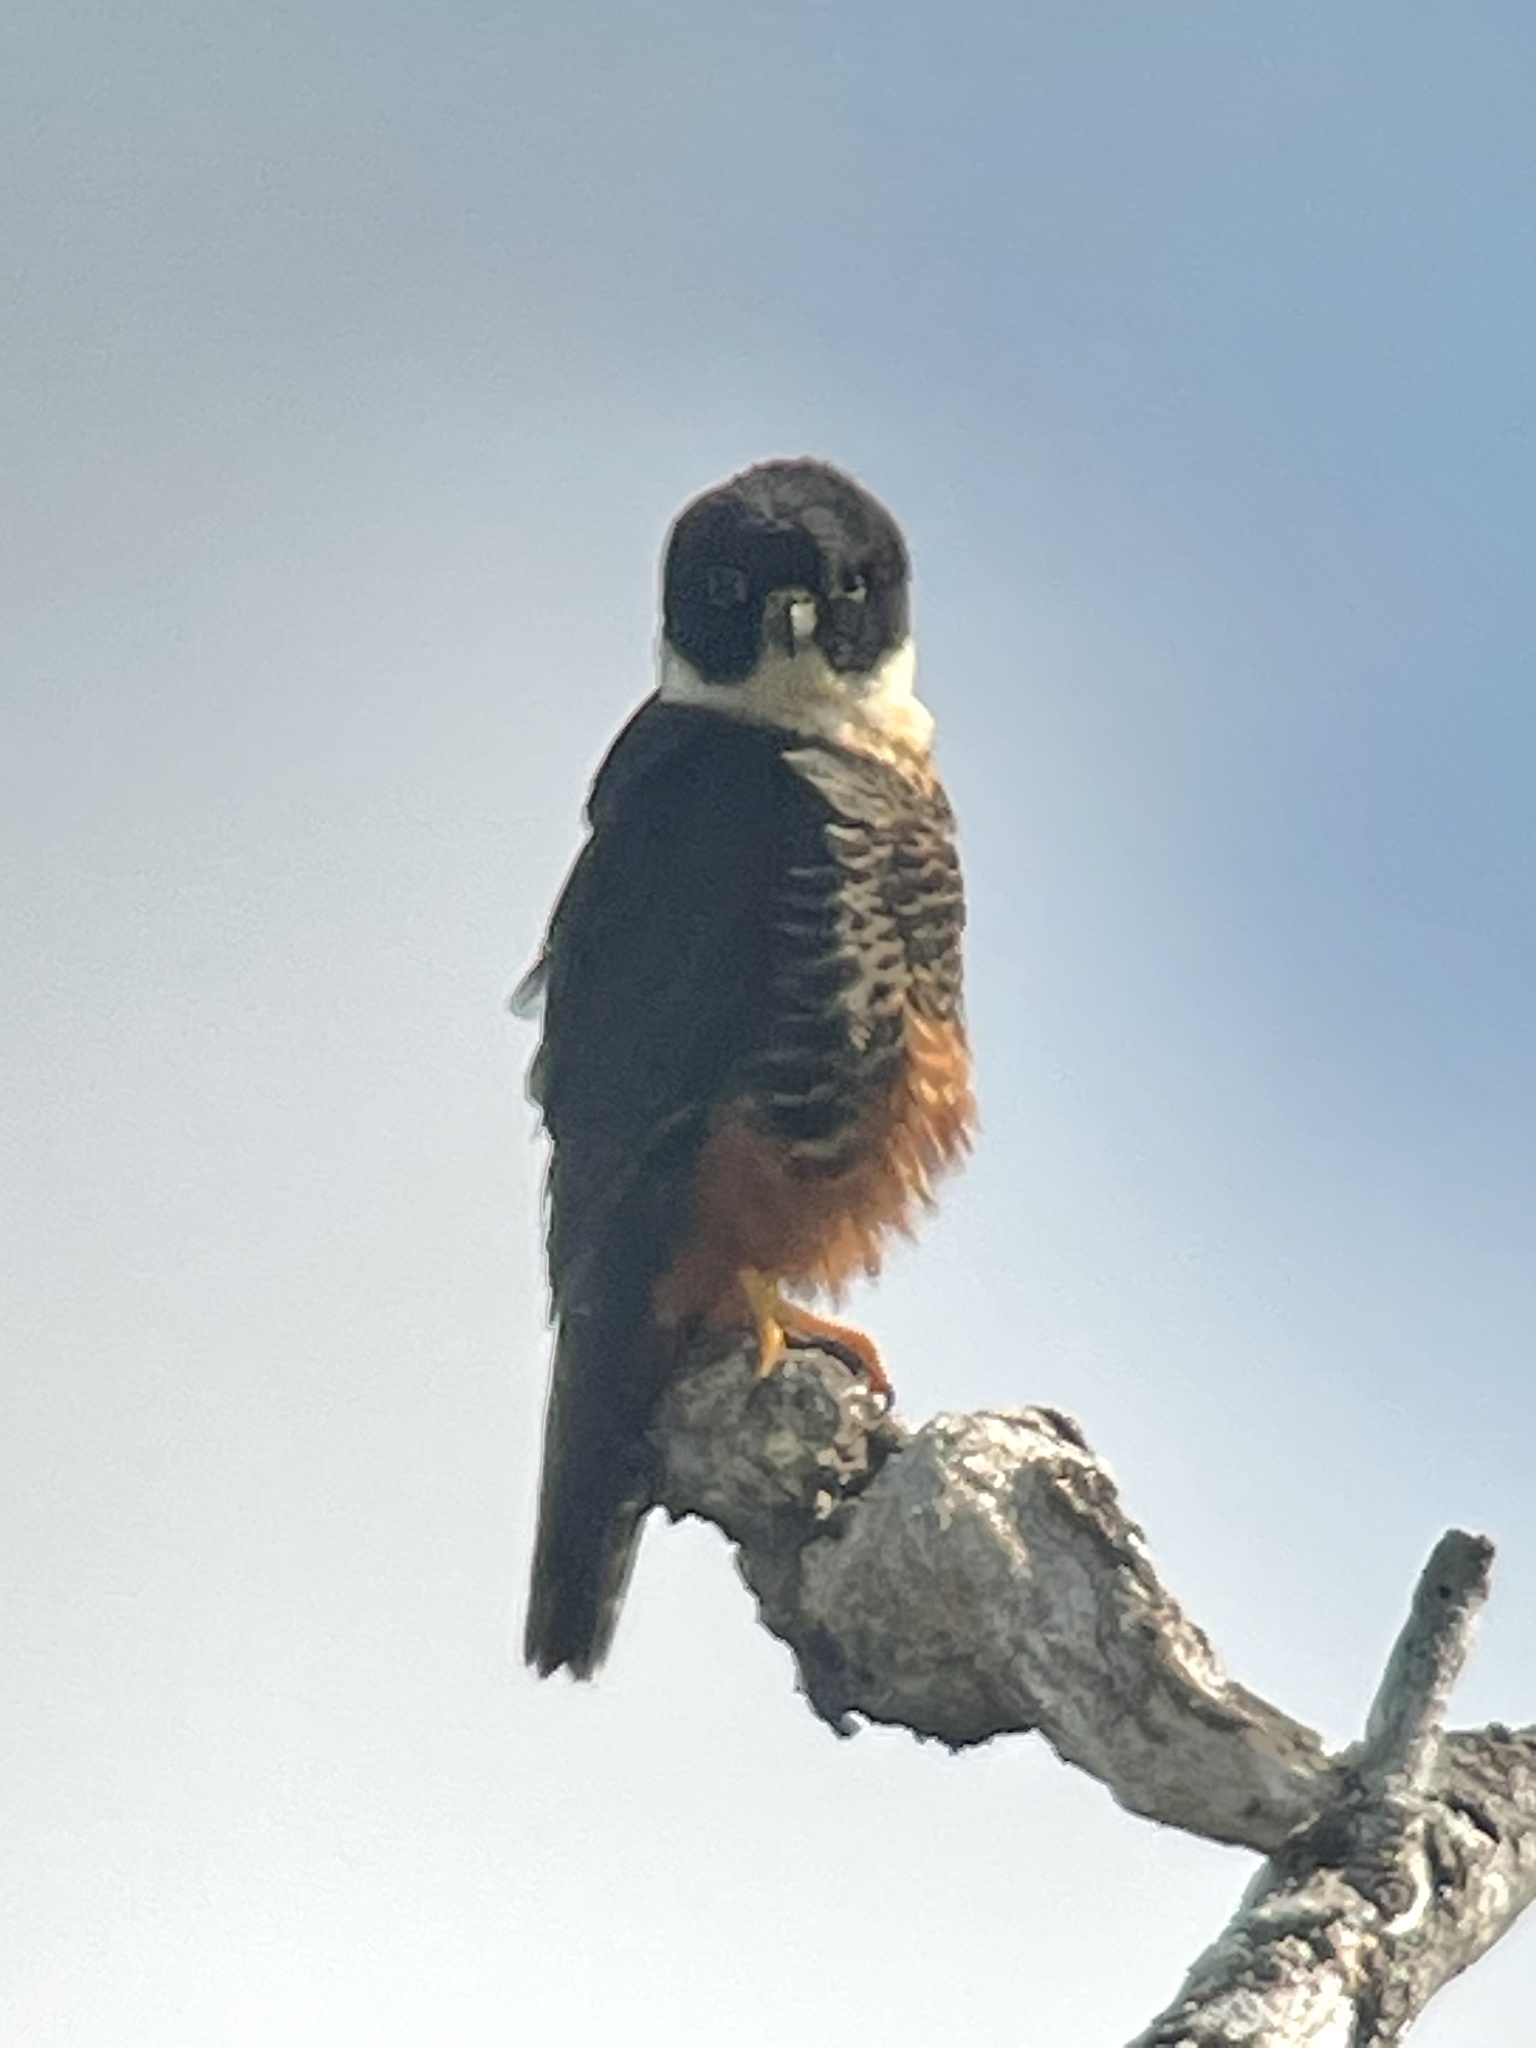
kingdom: Animalia
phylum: Chordata
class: Aves
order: Falconiformes
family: Falconidae
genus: Falco
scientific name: Falco rufigularis
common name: Bat falcon
